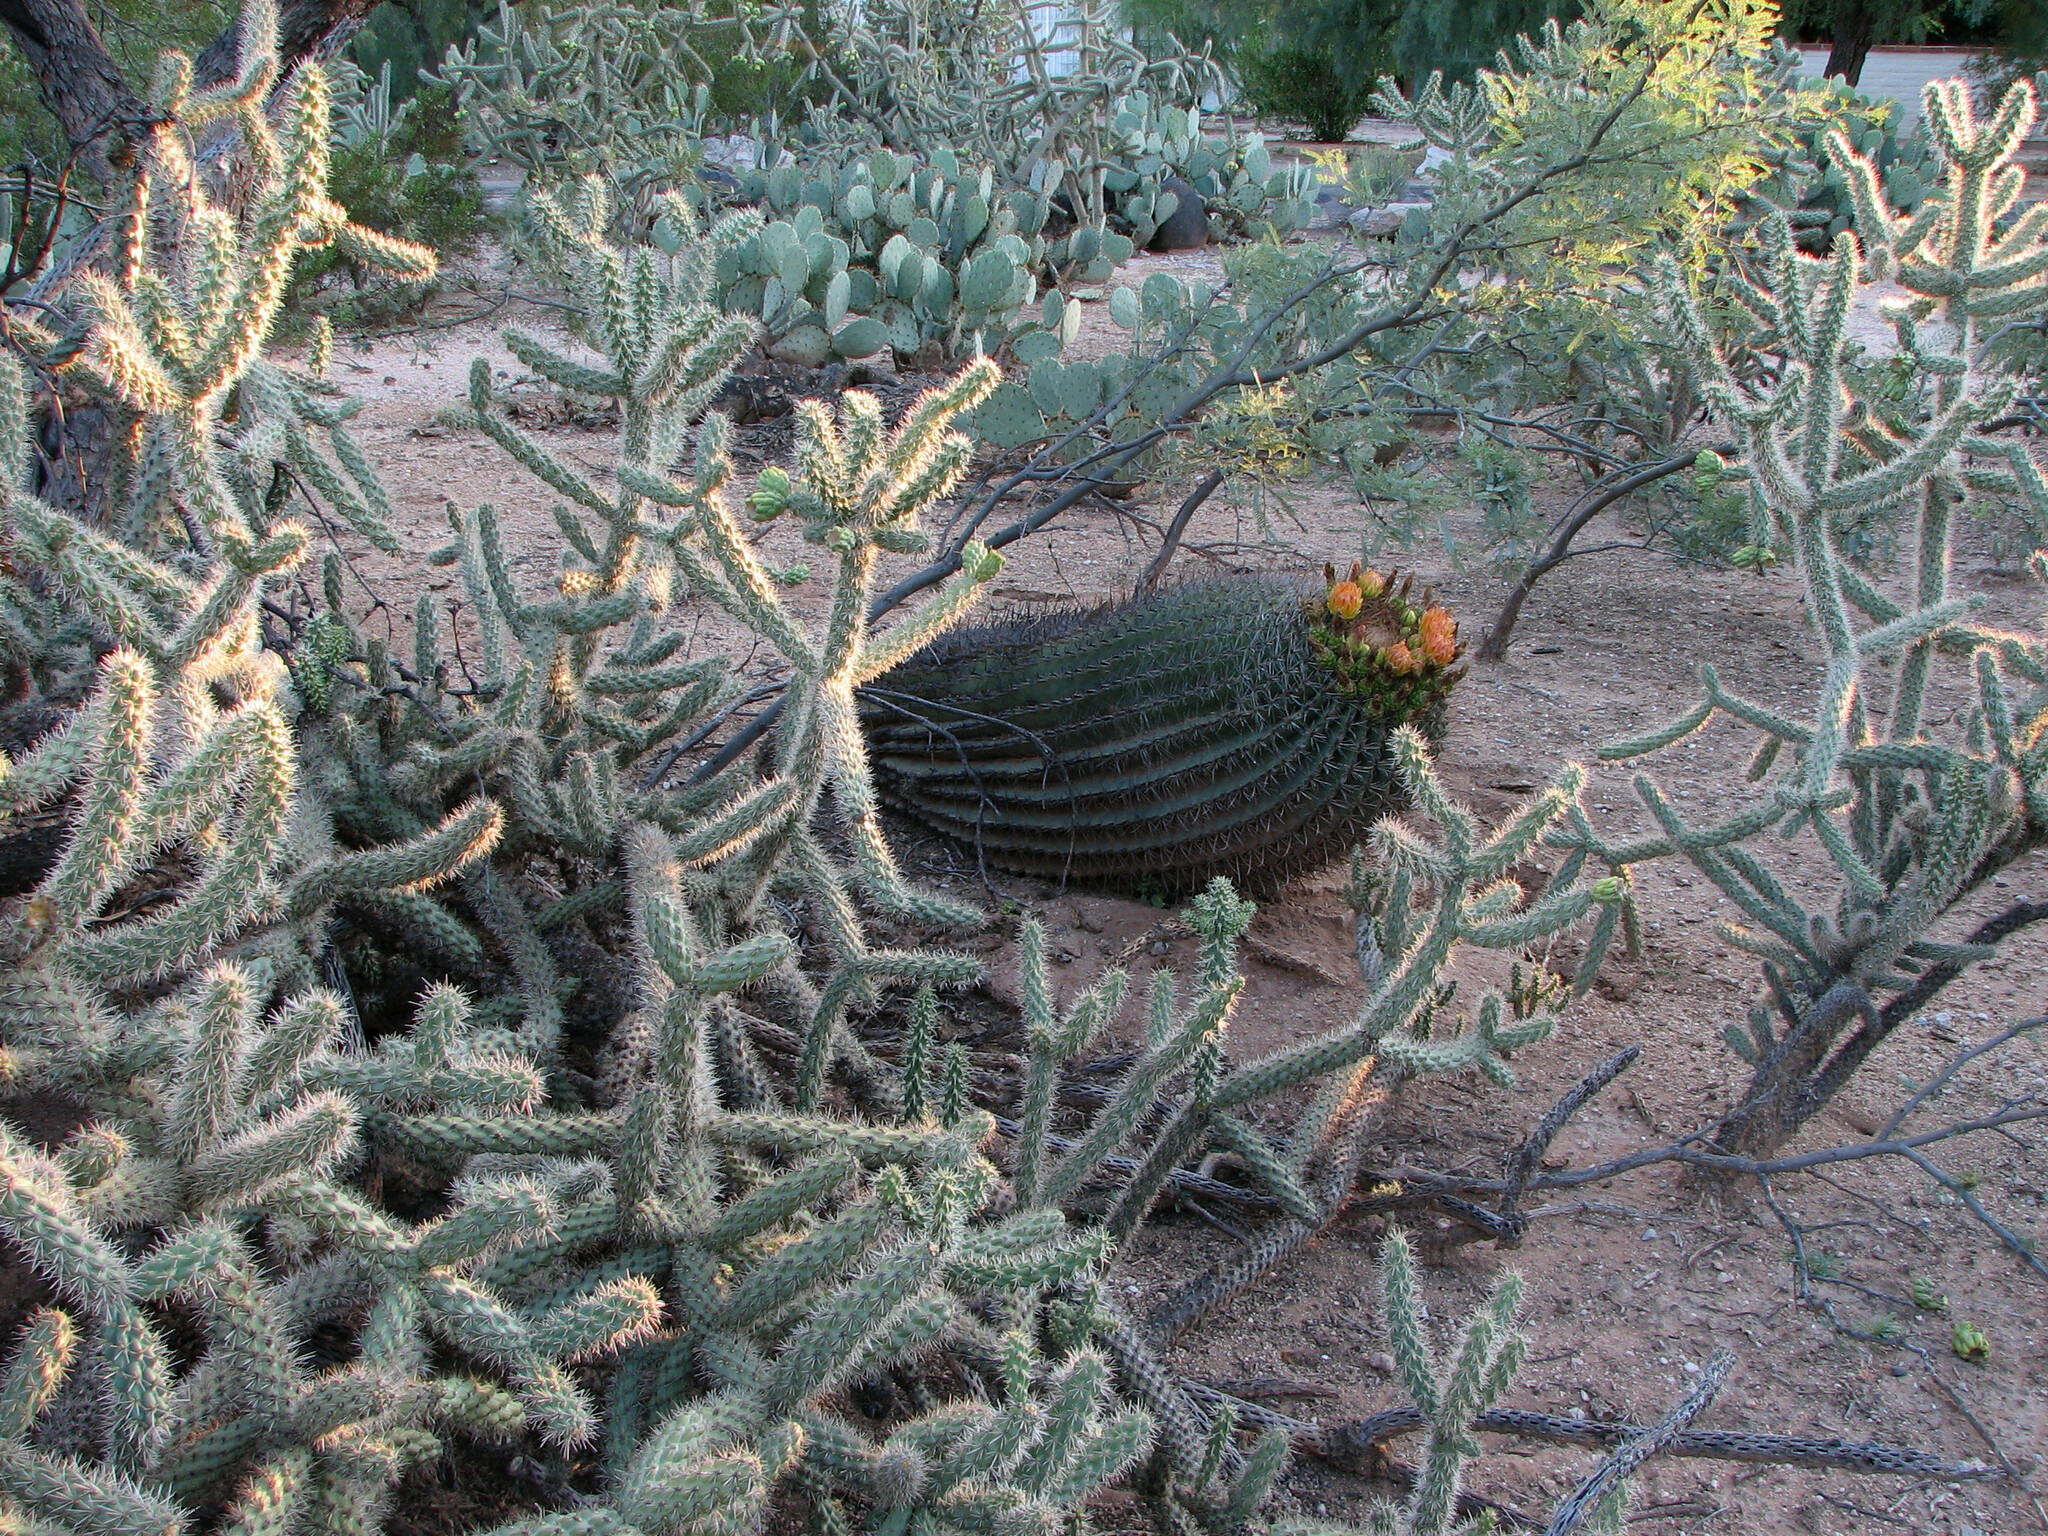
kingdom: Plantae
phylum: Tracheophyta
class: Magnoliopsida
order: Caryophyllales
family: Cactaceae
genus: Ferocactus
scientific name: Ferocactus wislizeni
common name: Candy barrel cactus
